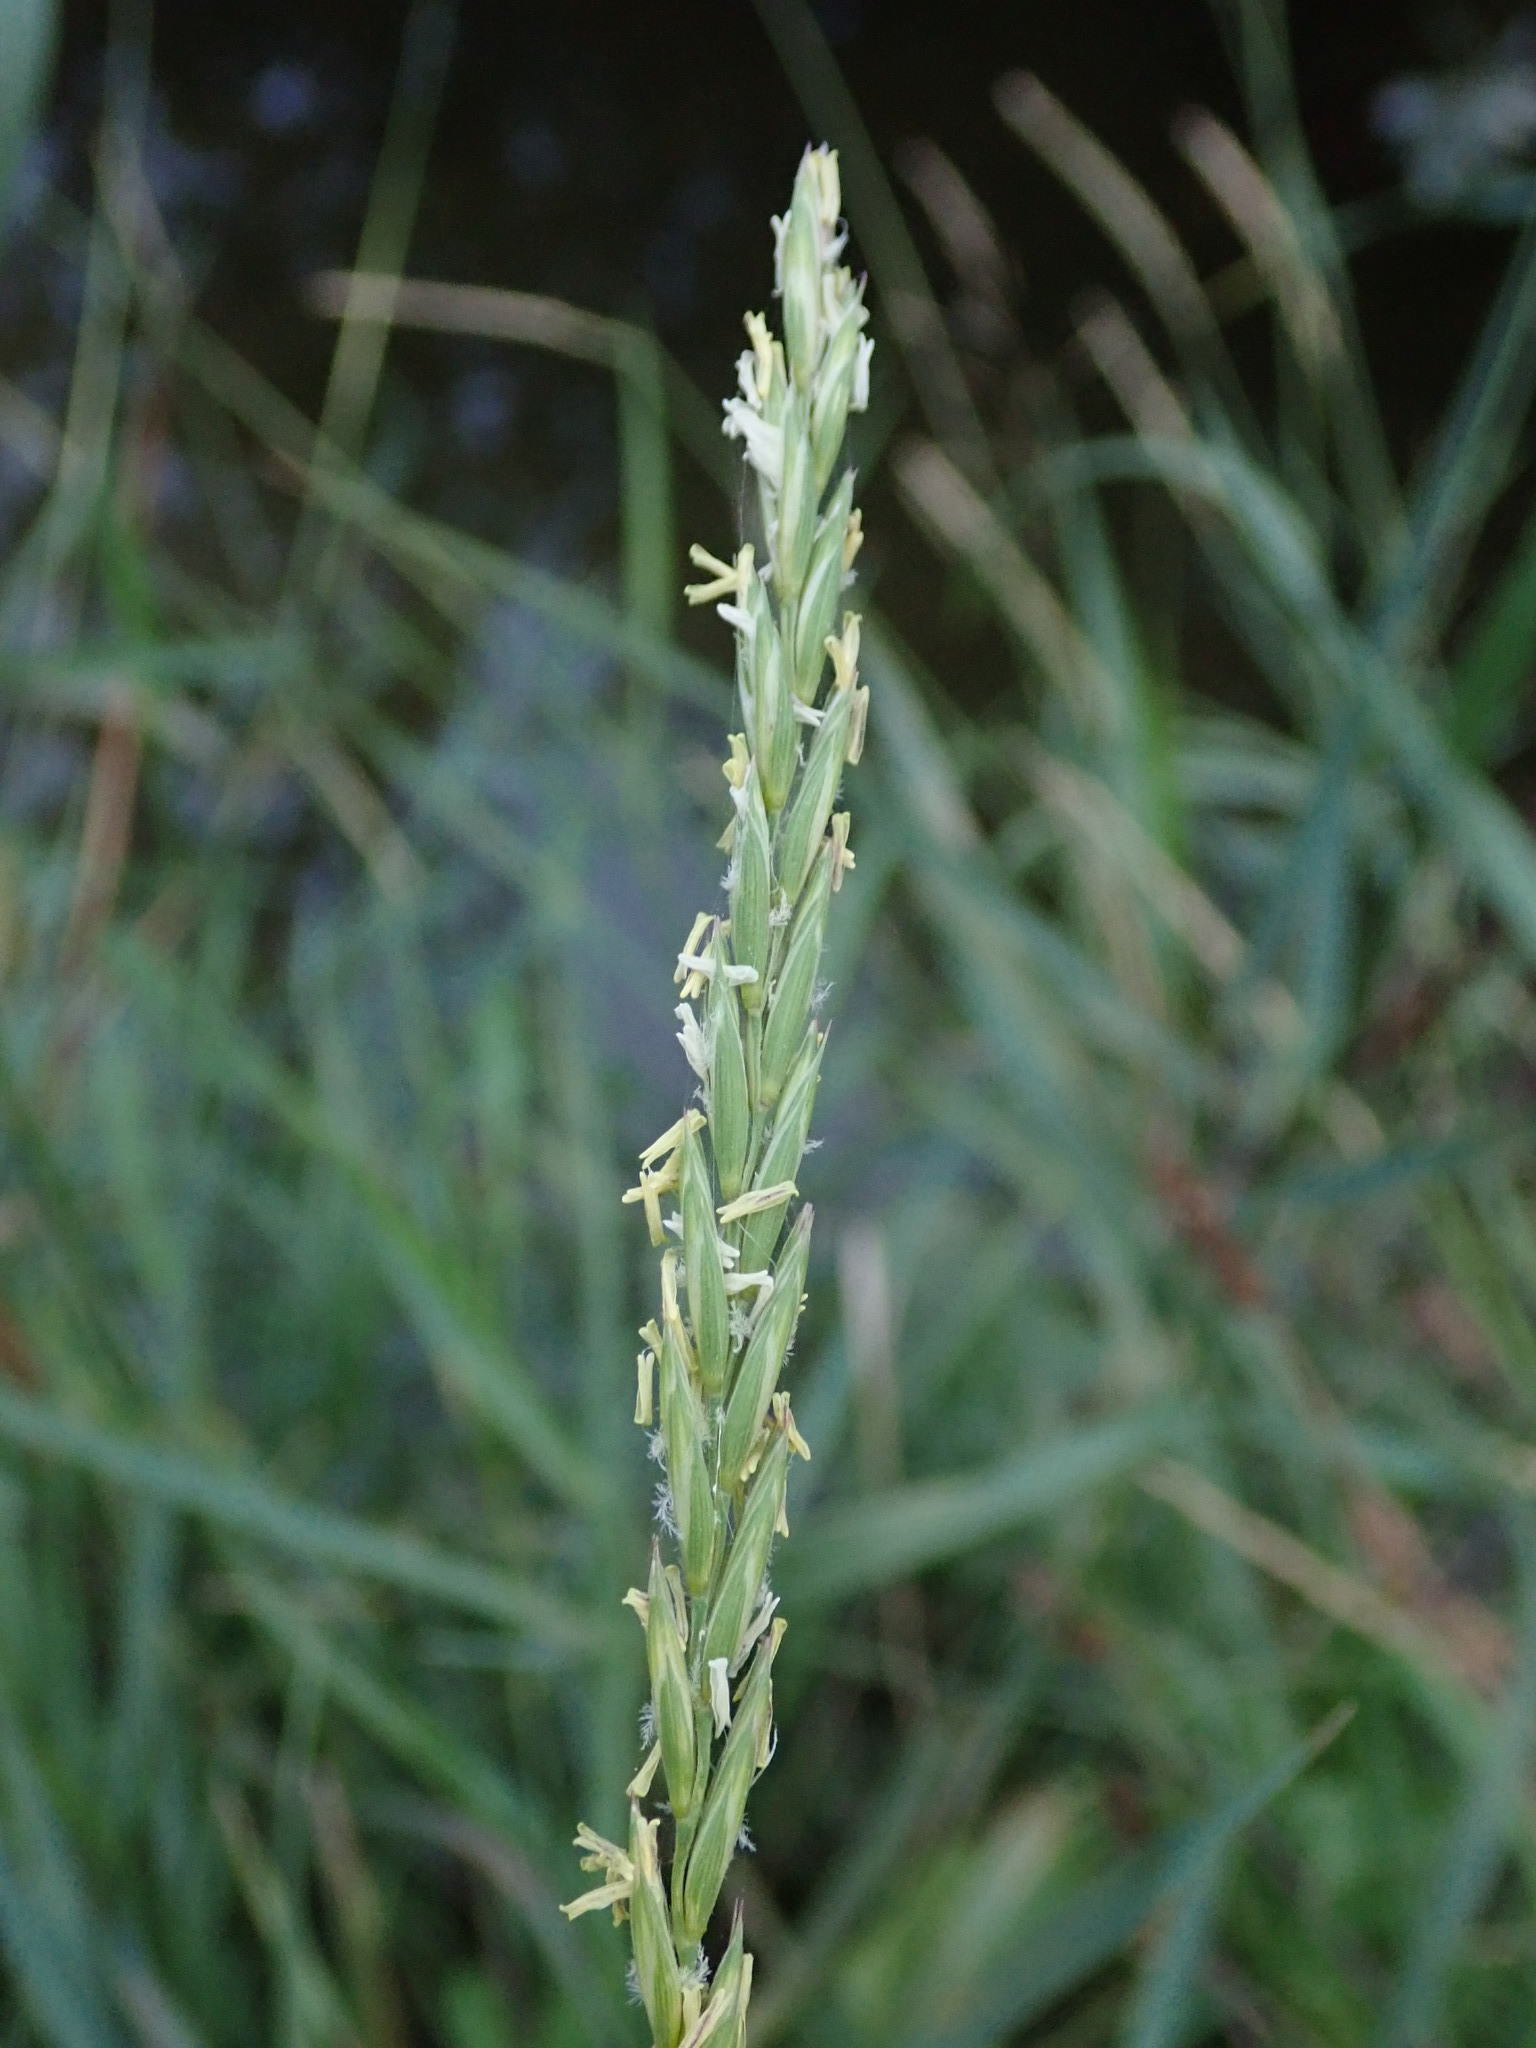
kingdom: Plantae
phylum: Tracheophyta
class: Liliopsida
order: Poales
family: Poaceae
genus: Elymus
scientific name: Elymus repens
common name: Quackgrass
